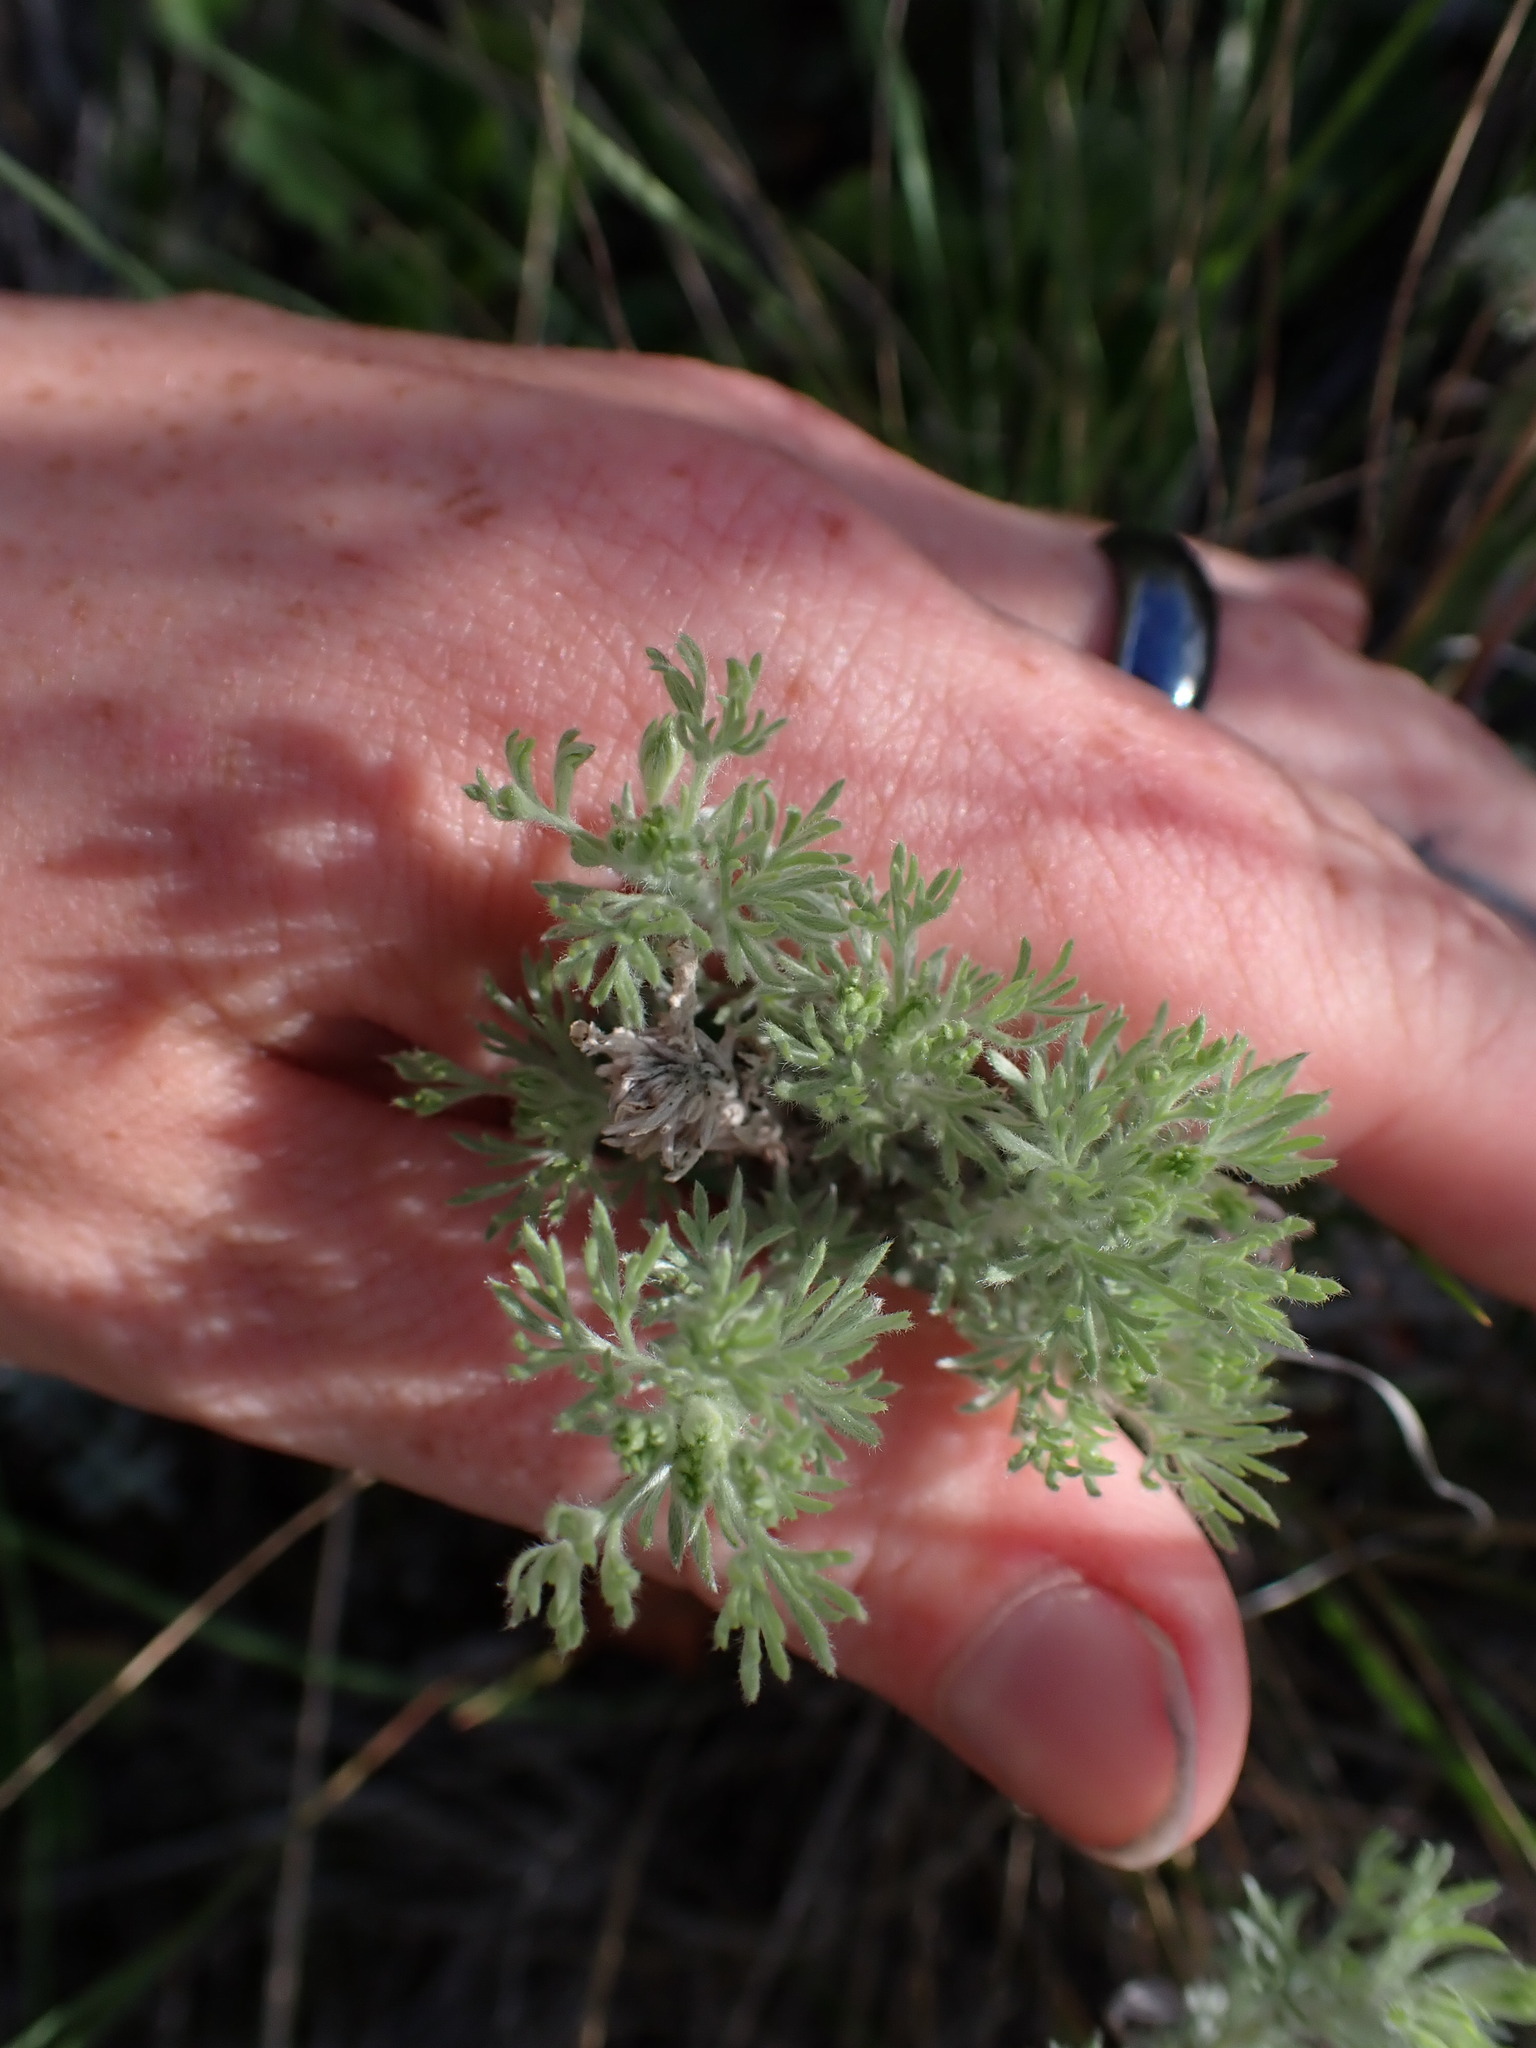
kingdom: Plantae
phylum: Tracheophyta
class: Magnoliopsida
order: Asterales
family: Asteraceae
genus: Artemisia
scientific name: Artemisia frigida
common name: Prairie sagewort
